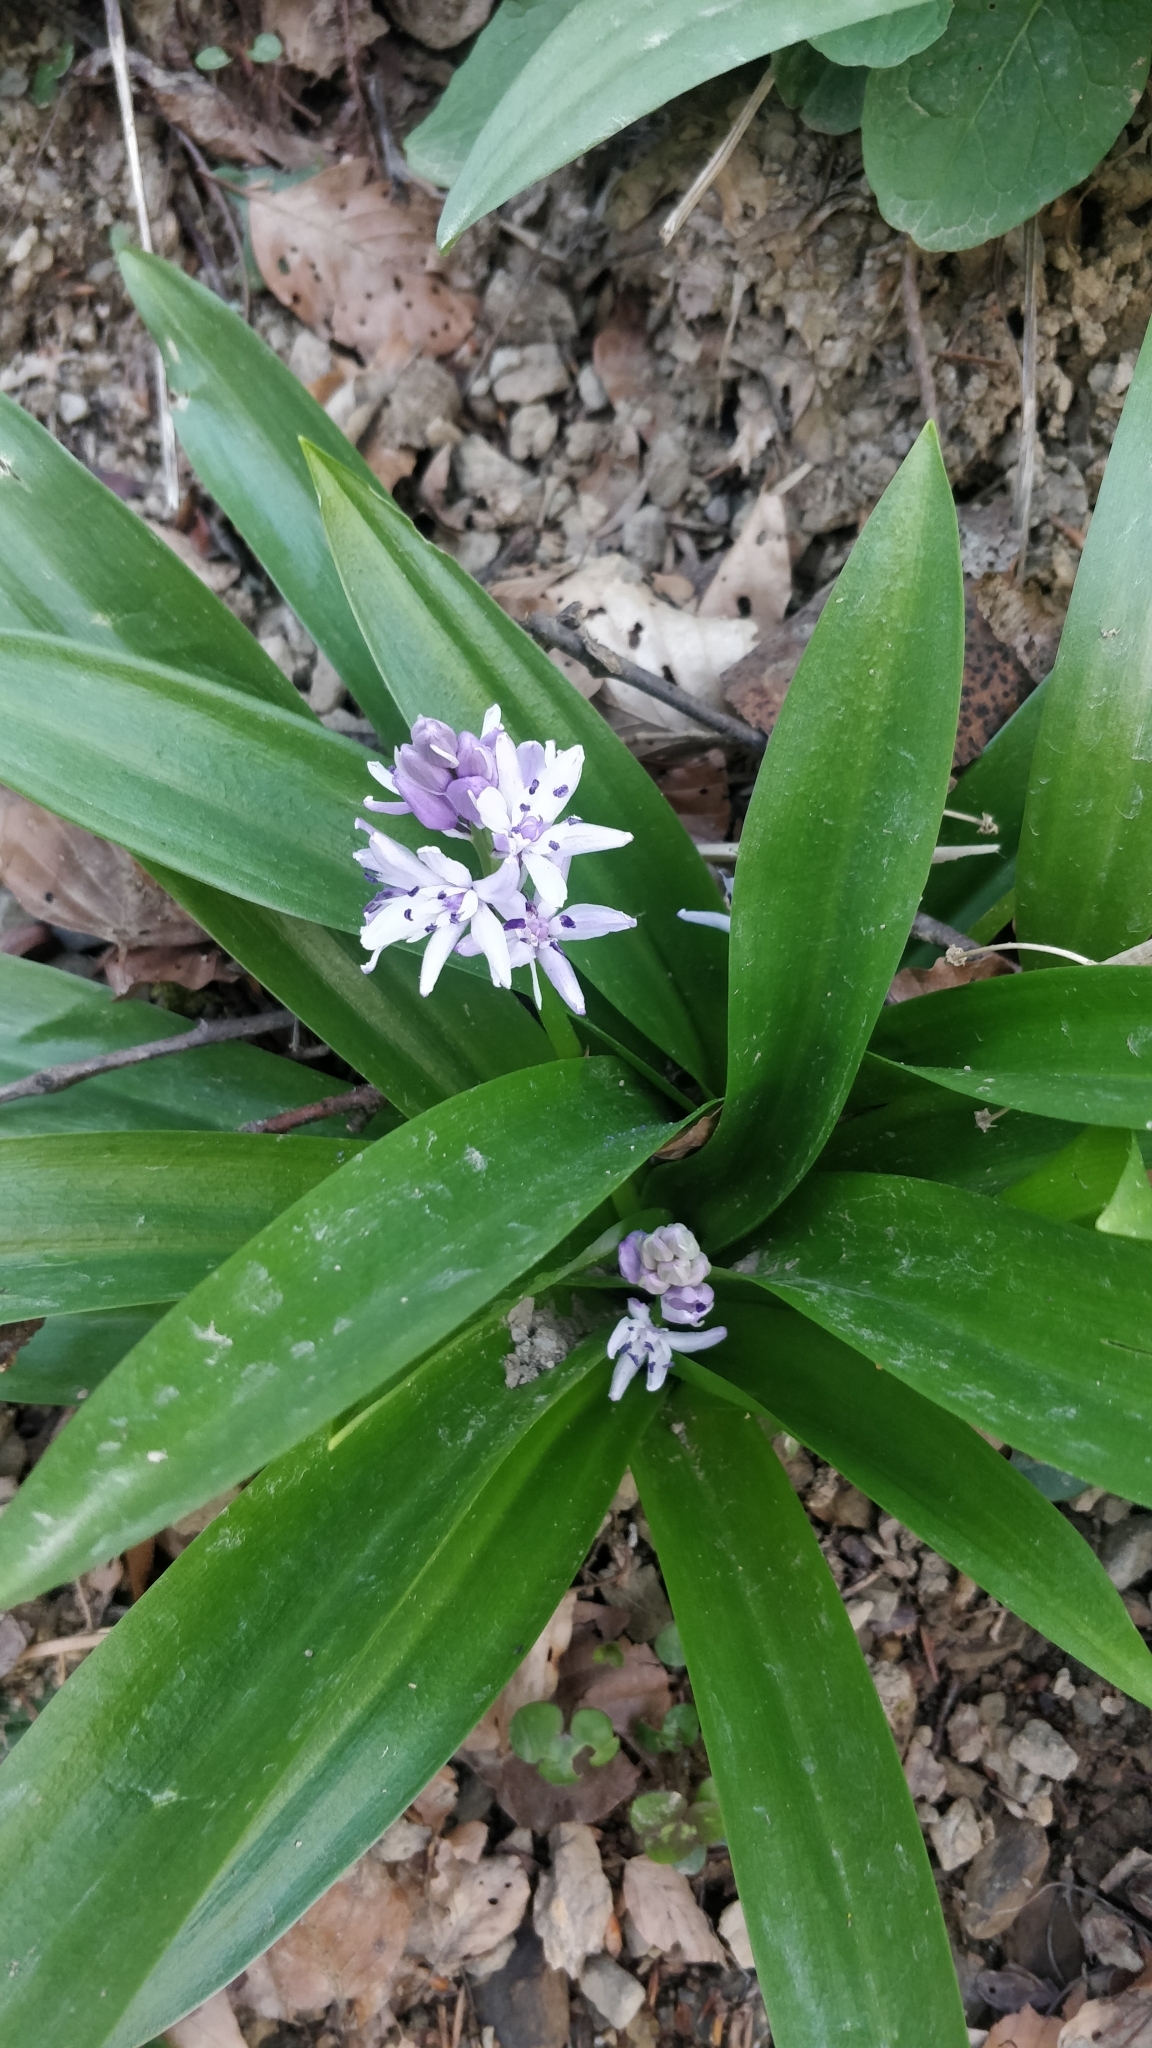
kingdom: Plantae
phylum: Tracheophyta
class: Liliopsida
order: Asparagales
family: Asparagaceae
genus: Scilla
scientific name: Scilla lilio-hyacinthus
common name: Pyrenean squill
